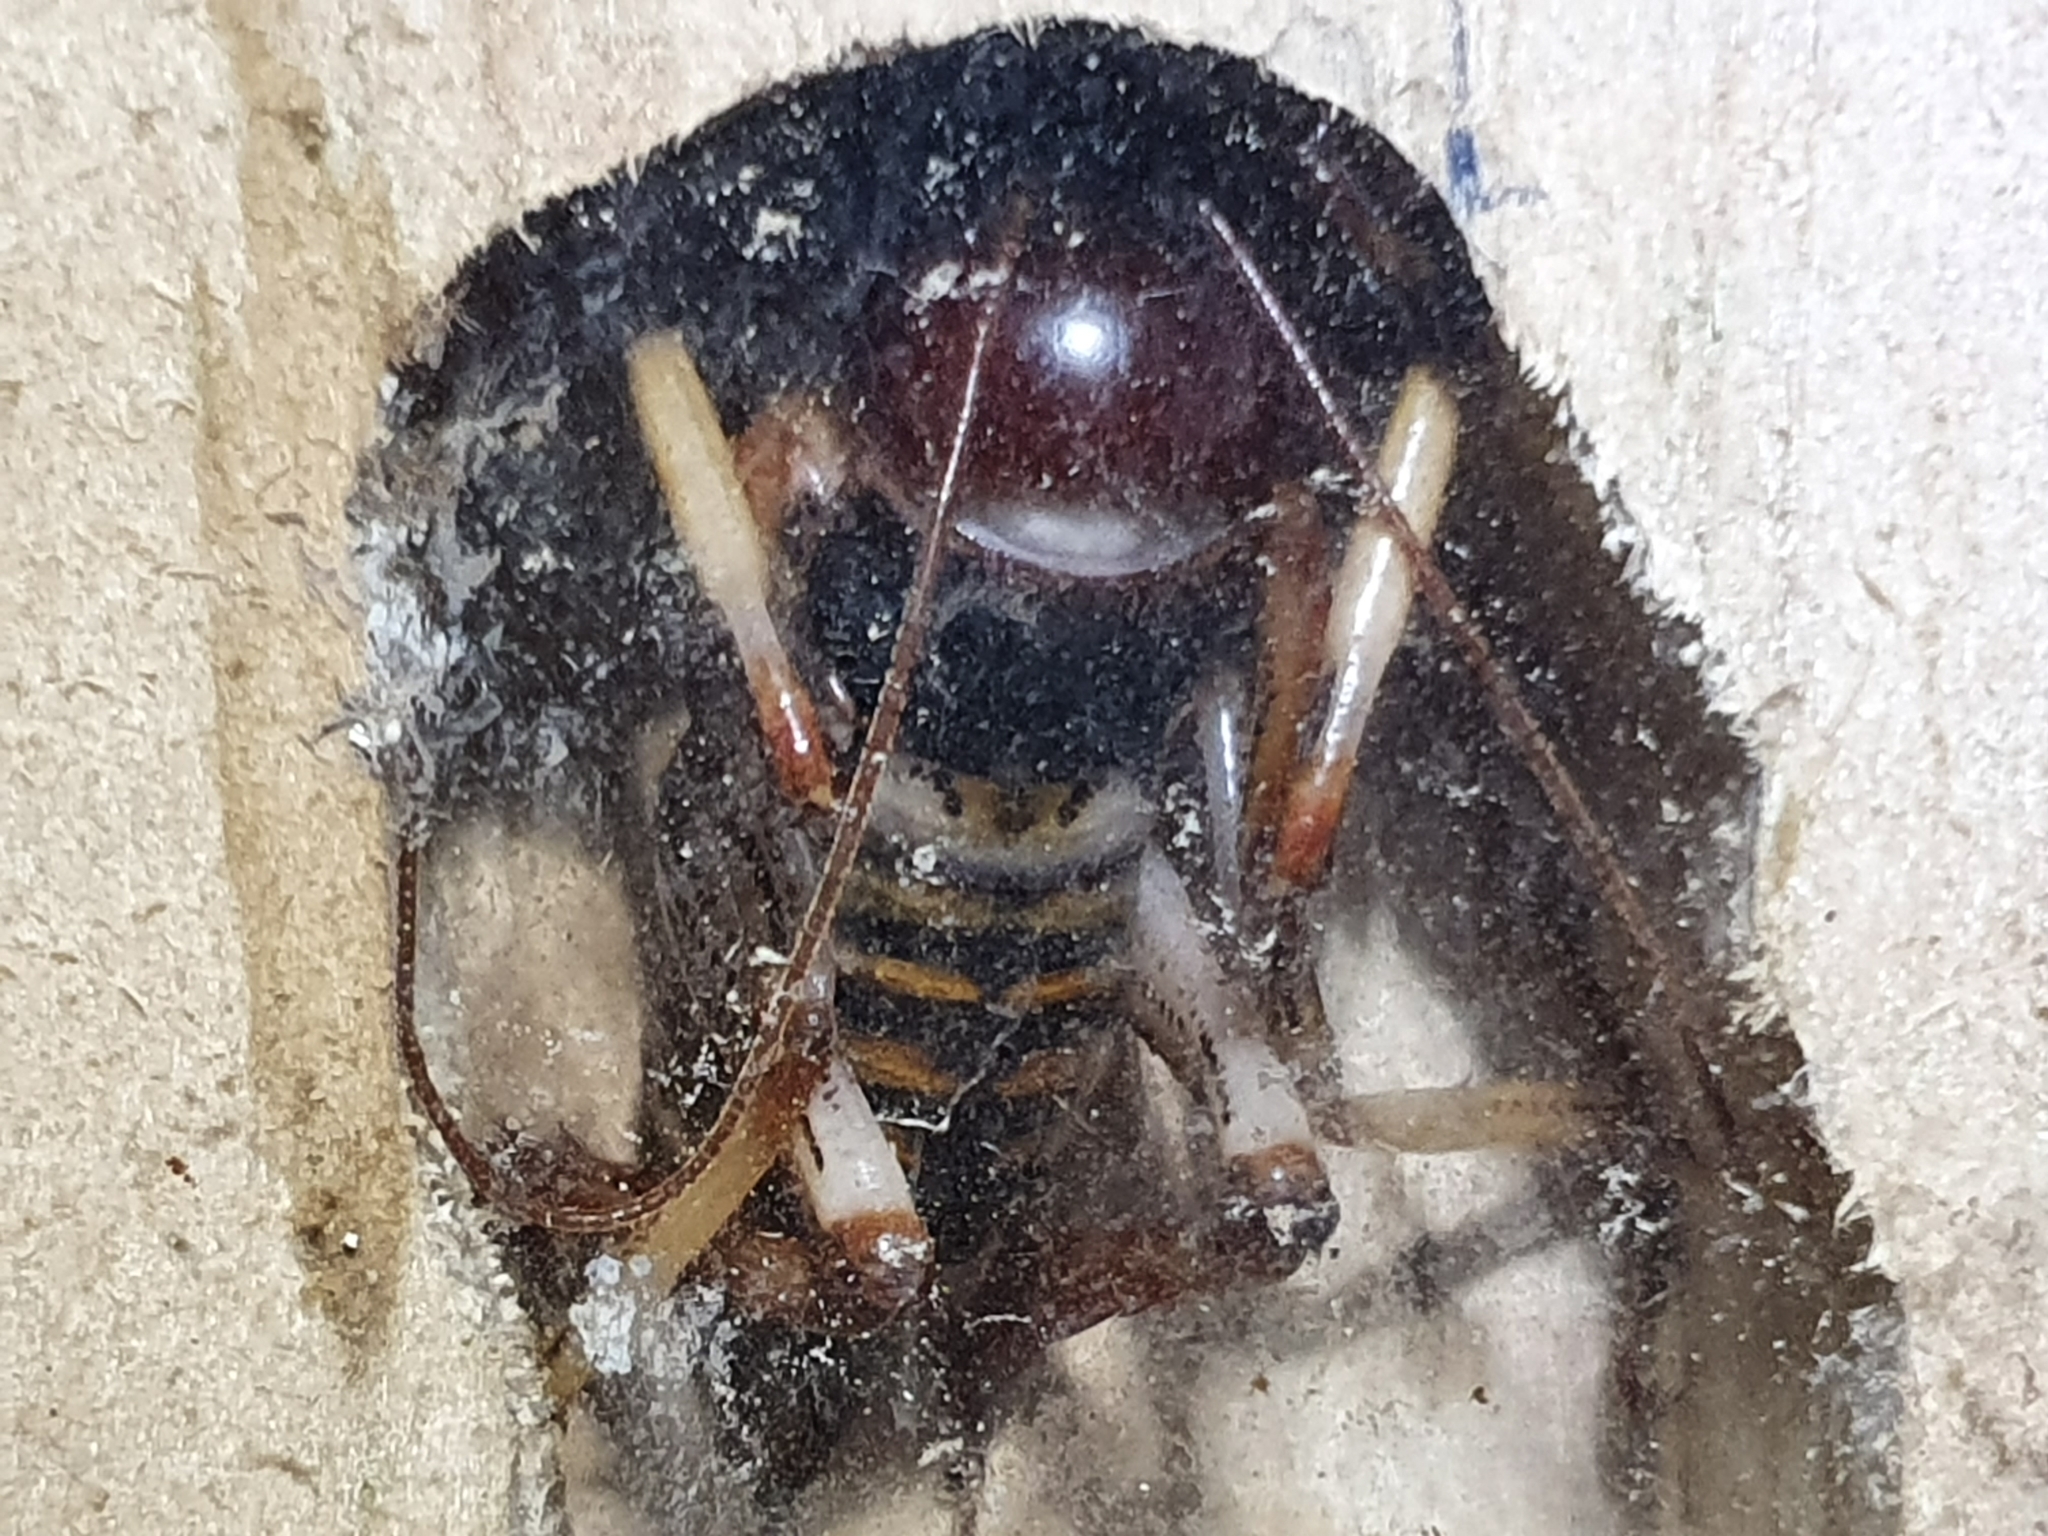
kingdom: Animalia
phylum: Arthropoda
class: Insecta
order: Orthoptera
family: Anostostomatidae
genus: Hemideina
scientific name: Hemideina crassidens
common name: Wellington tree weta
